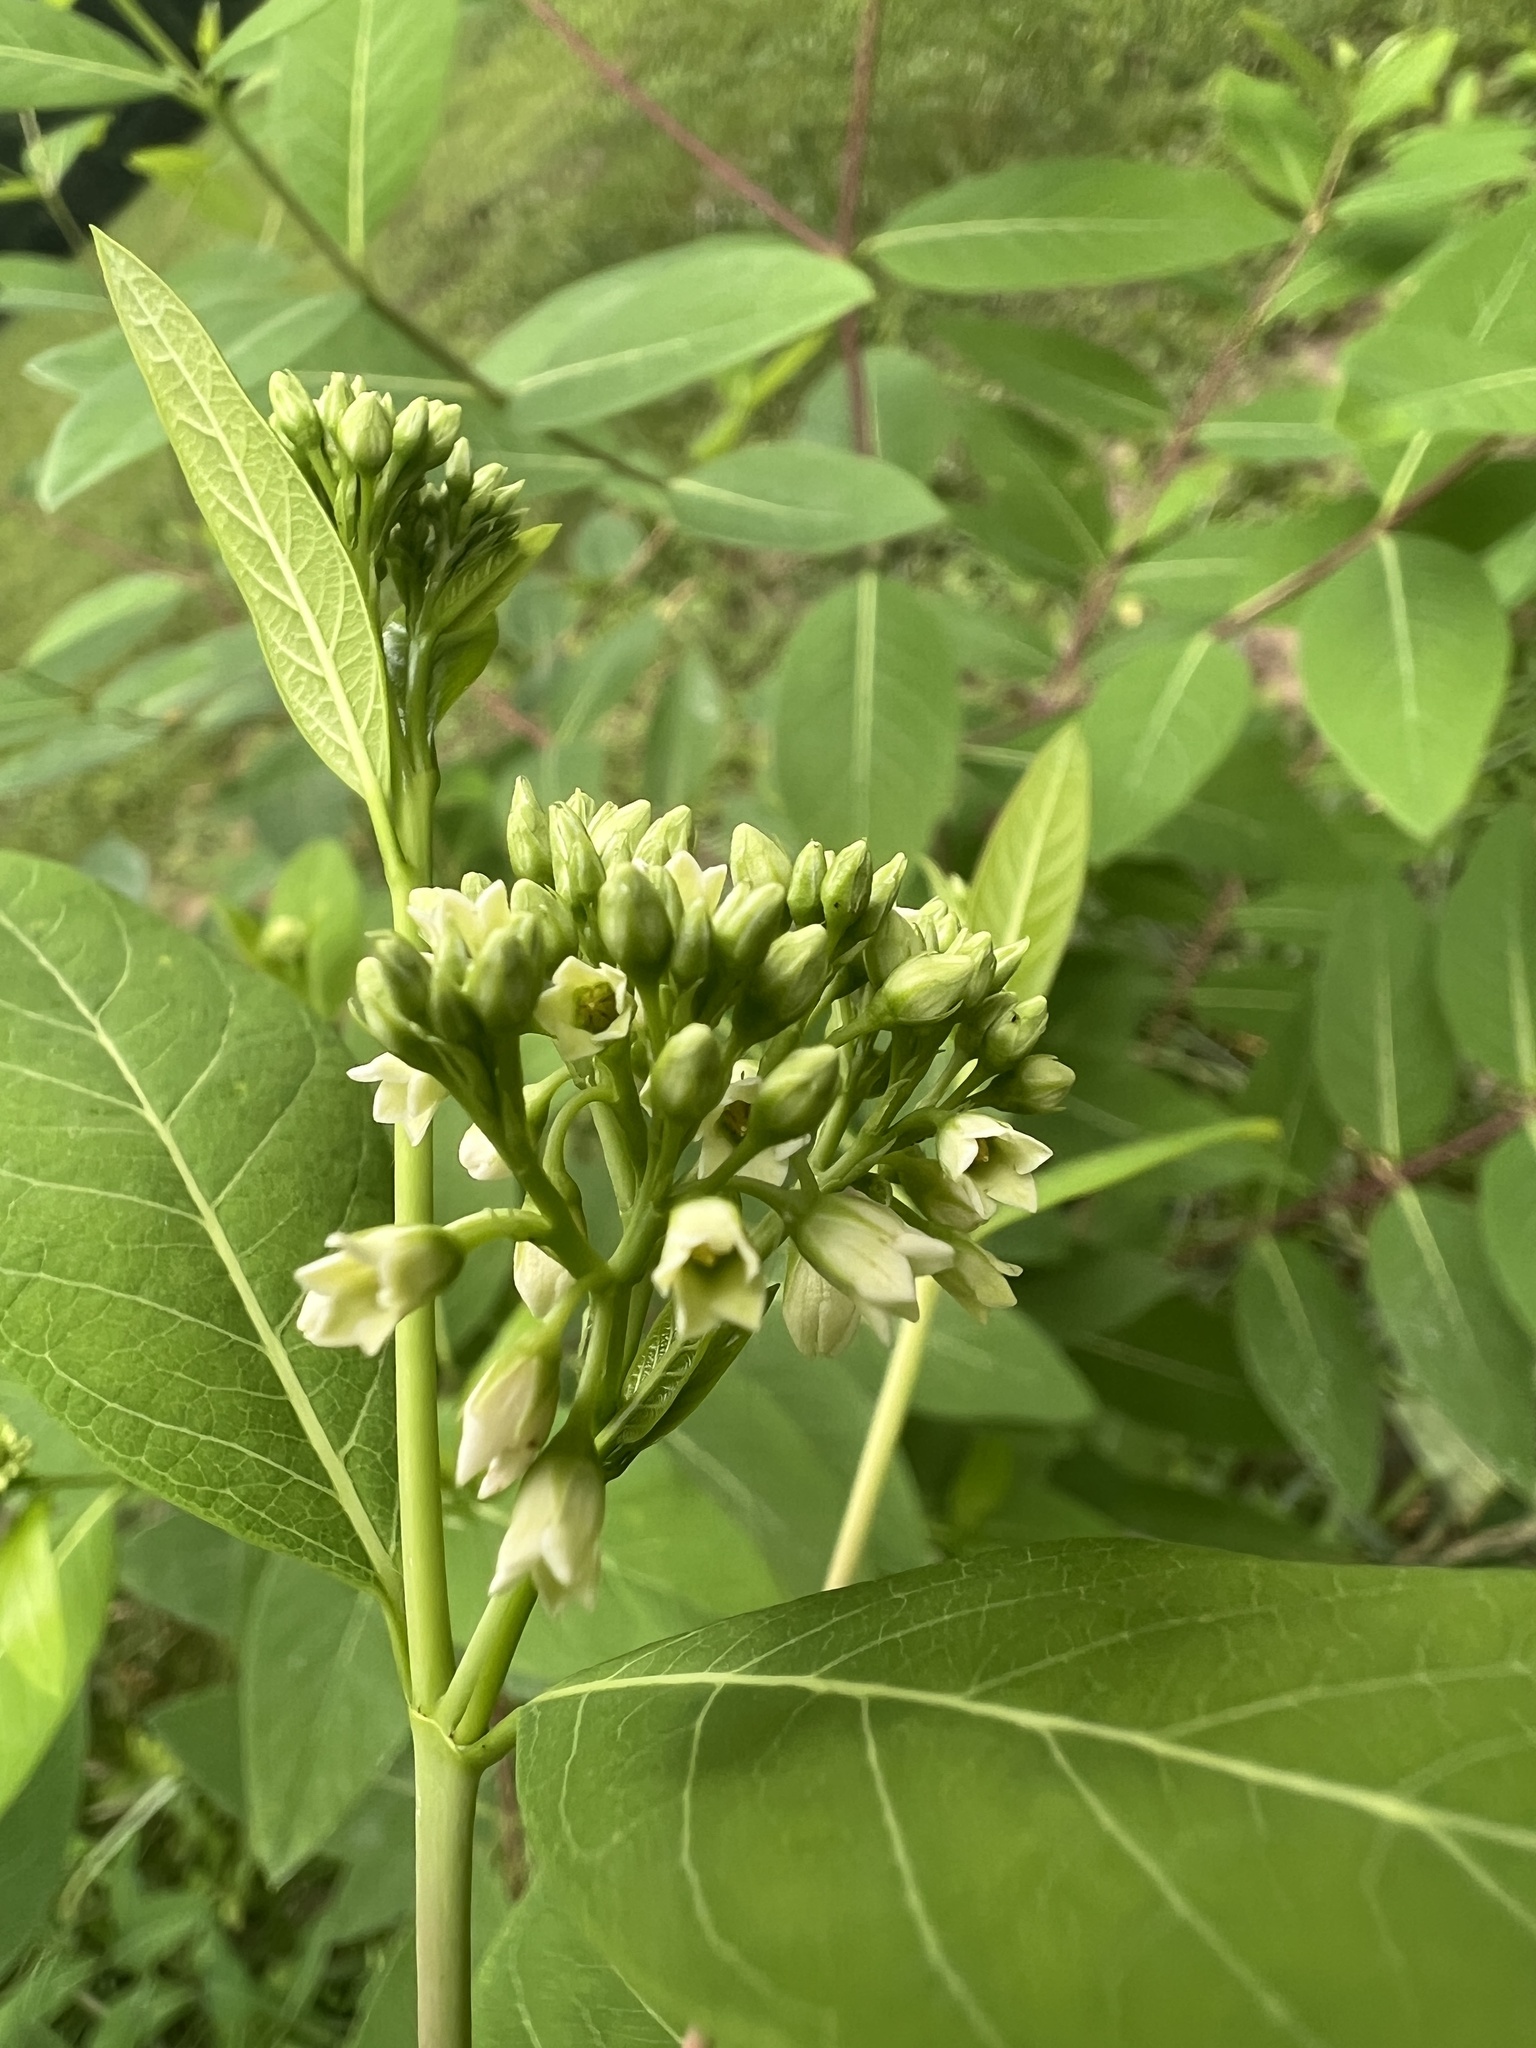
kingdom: Plantae
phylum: Tracheophyta
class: Magnoliopsida
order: Gentianales
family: Apocynaceae
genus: Apocynum
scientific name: Apocynum cannabinum
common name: Hemp dogbane
